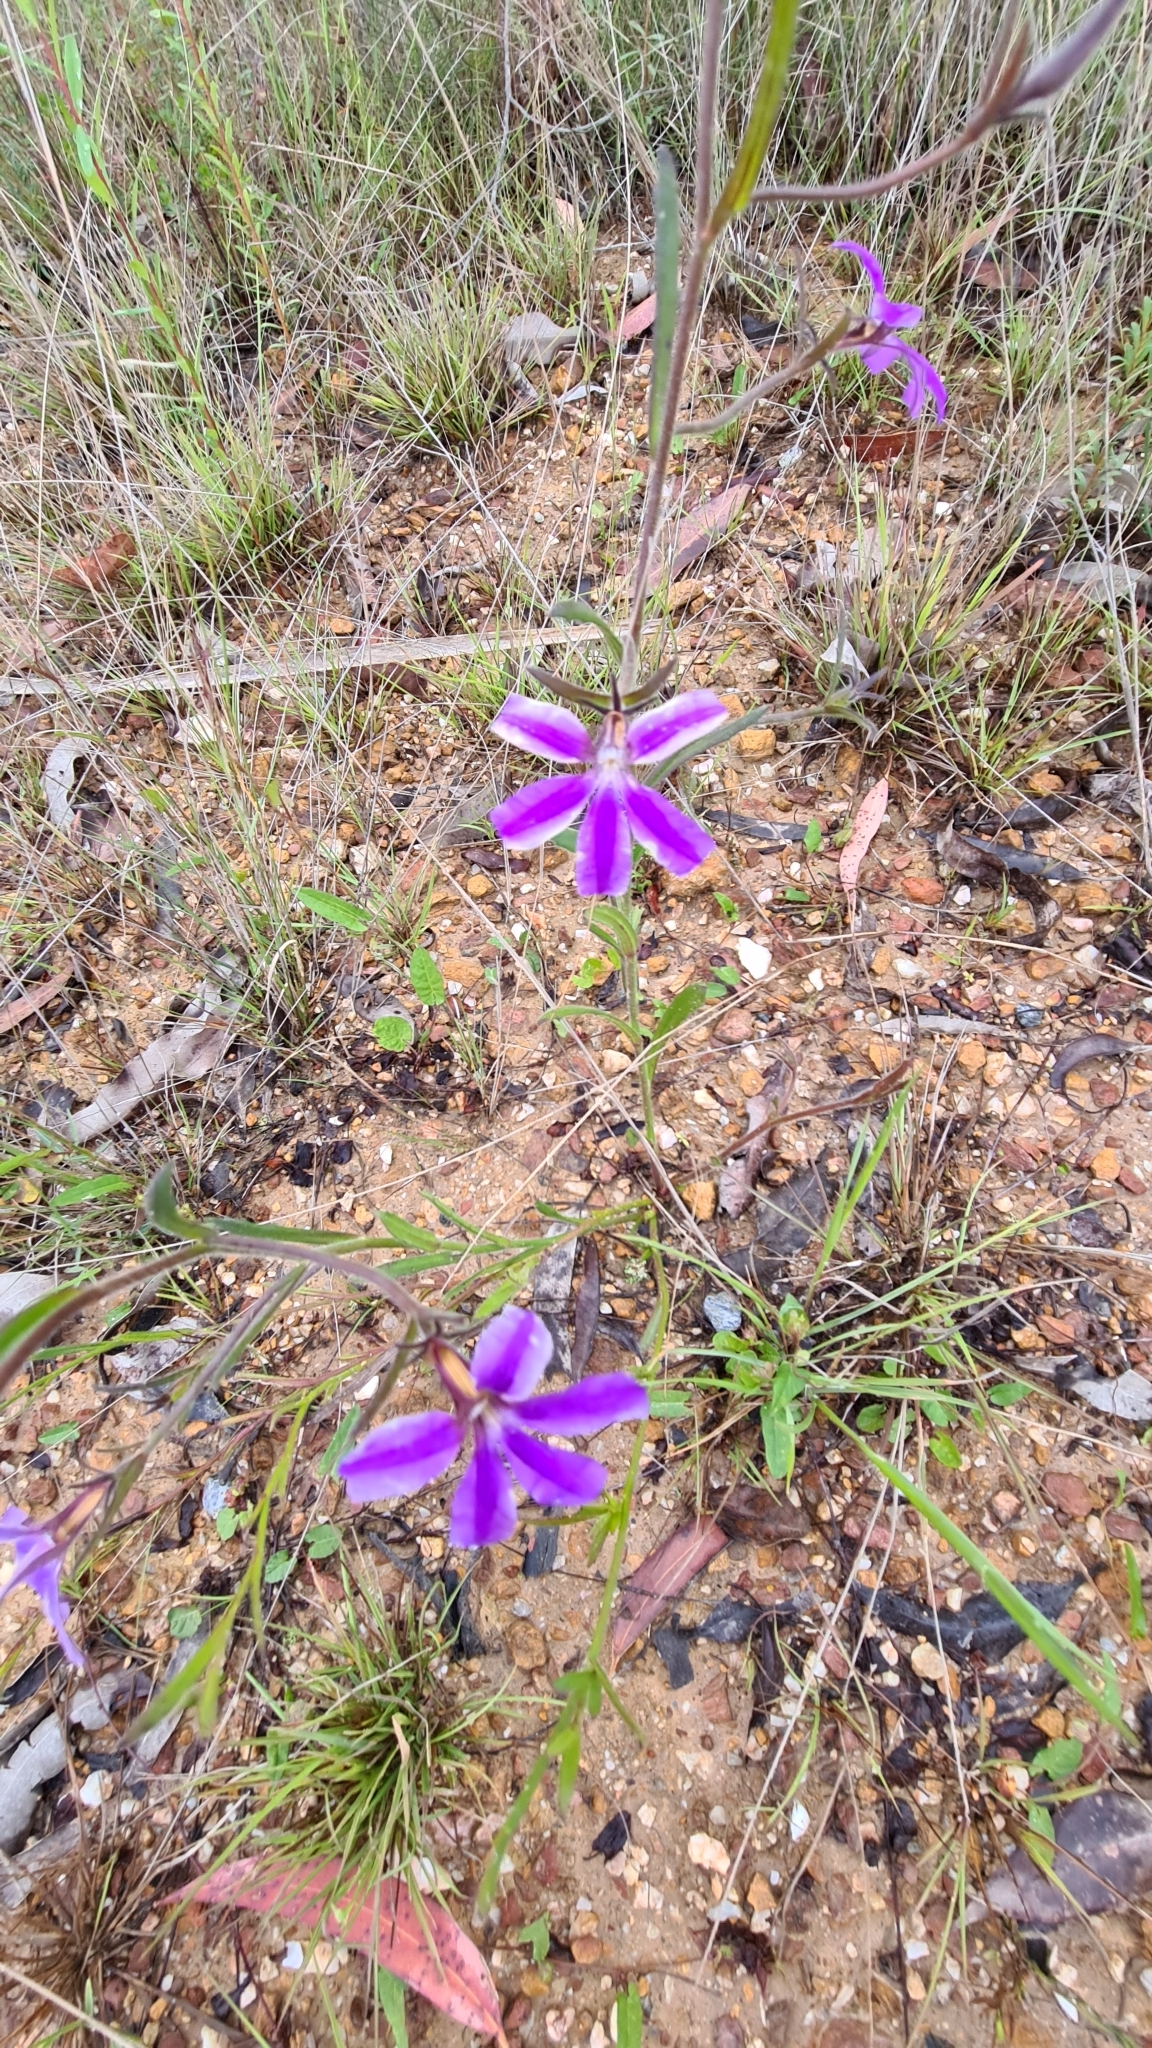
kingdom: Plantae
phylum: Tracheophyta
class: Magnoliopsida
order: Asterales
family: Goodeniaceae
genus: Scaevola
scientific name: Scaevola ramosissima
